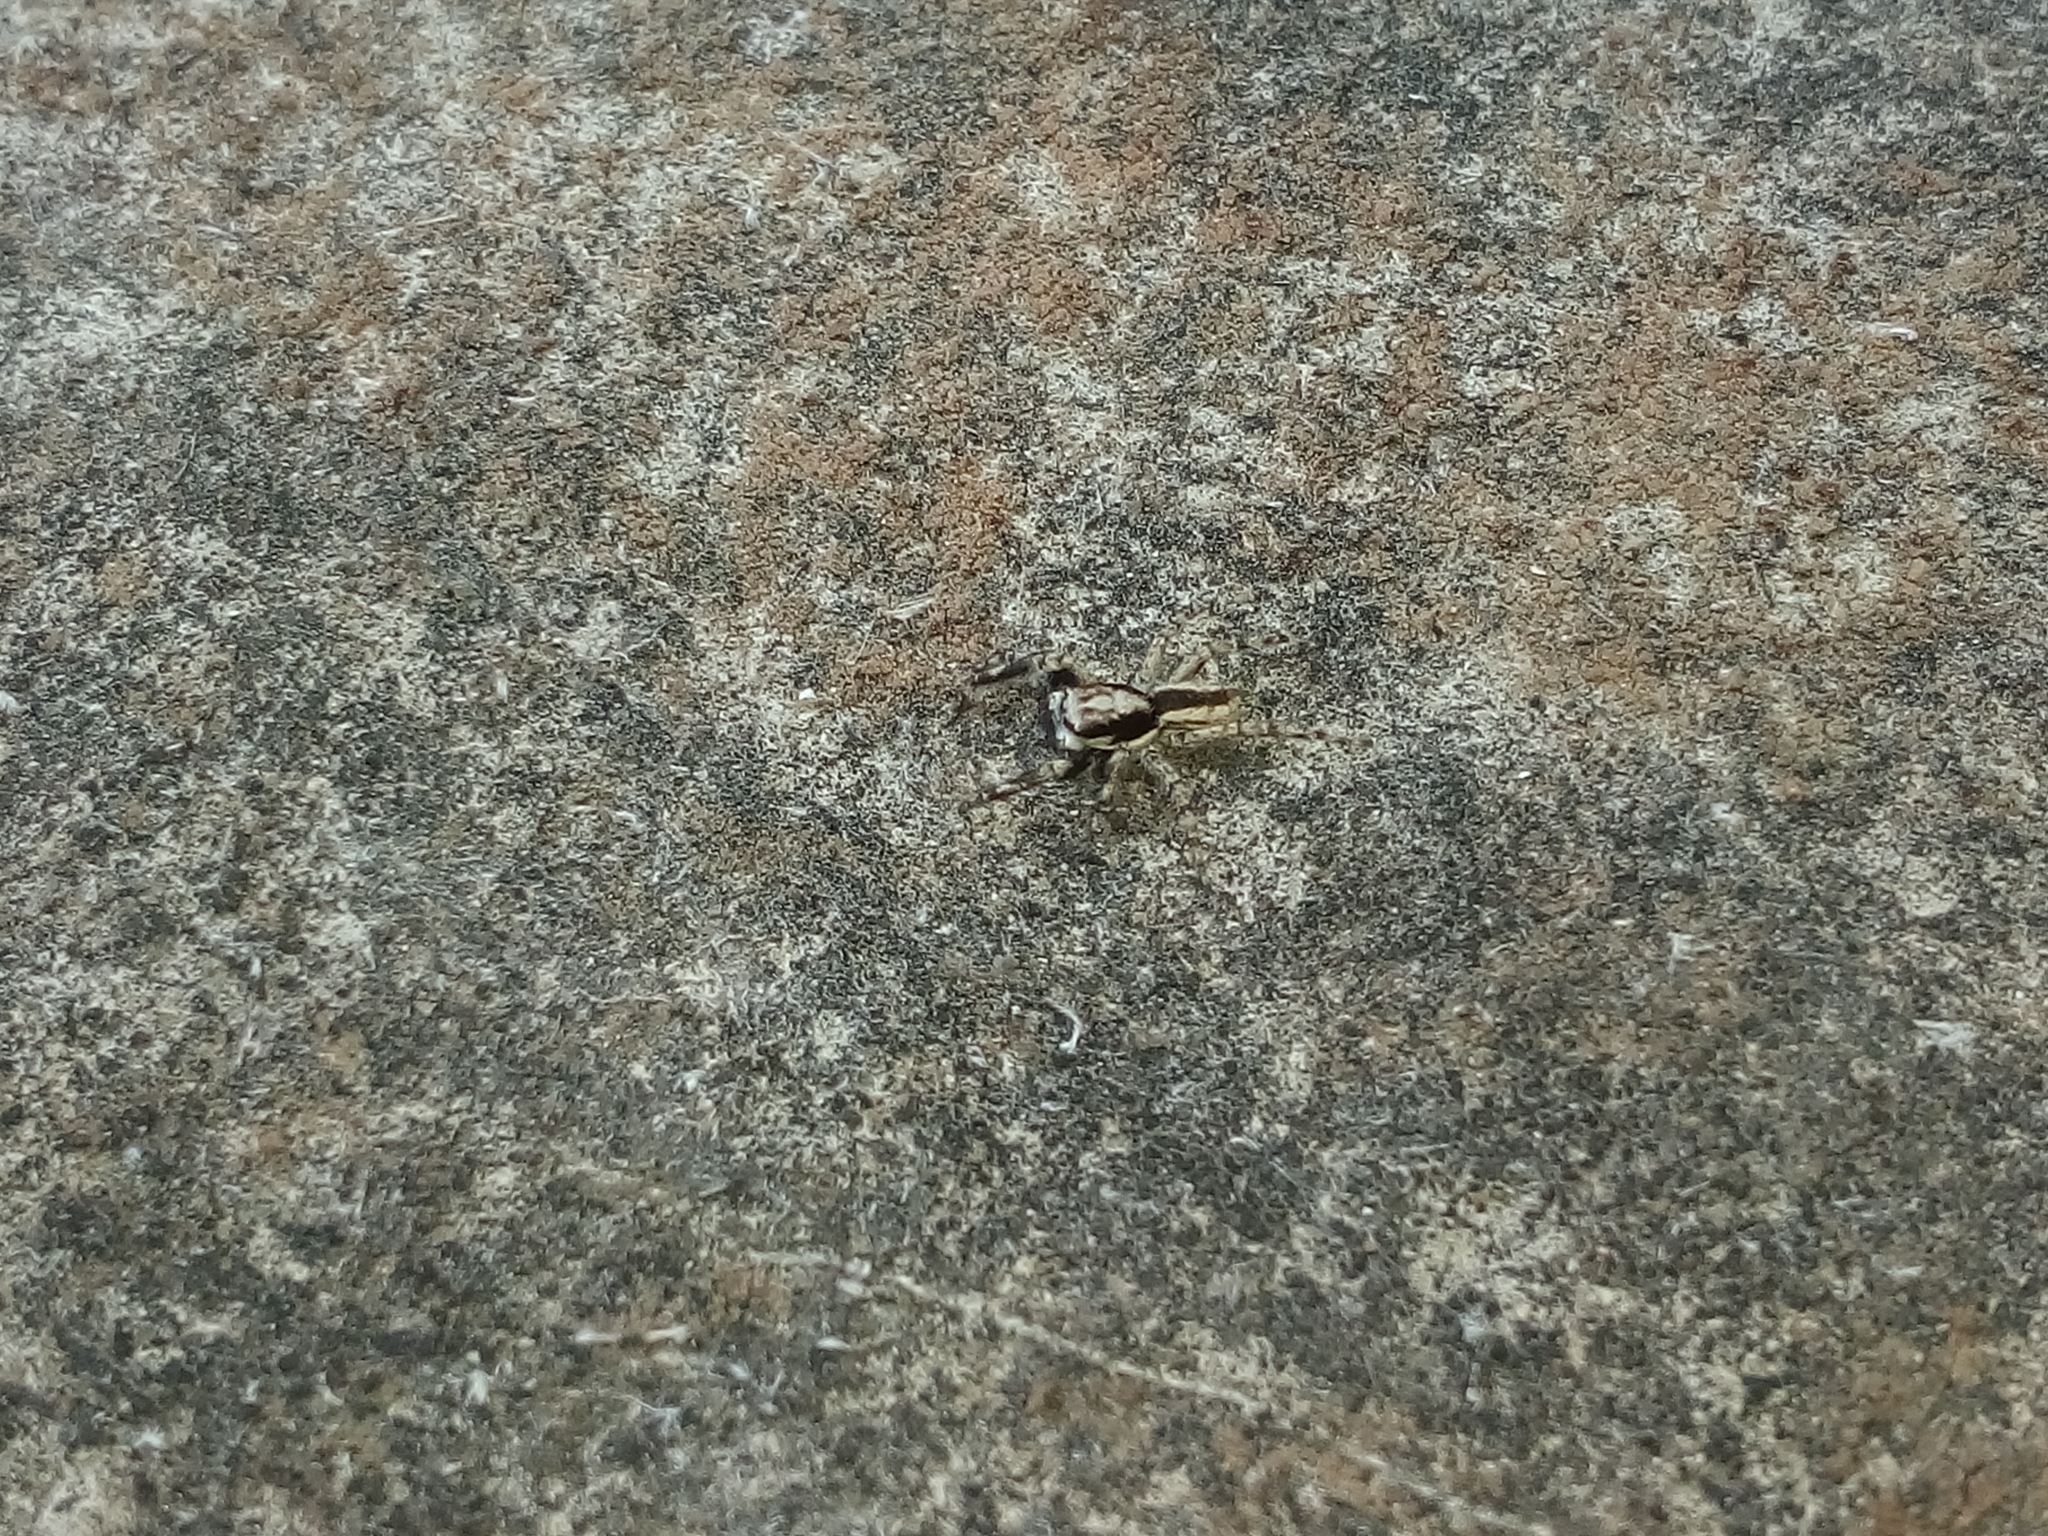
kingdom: Animalia
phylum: Arthropoda
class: Arachnida
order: Araneae
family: Salticidae
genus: Menemerus
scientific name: Menemerus bivittatus
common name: Gray wall jumper
